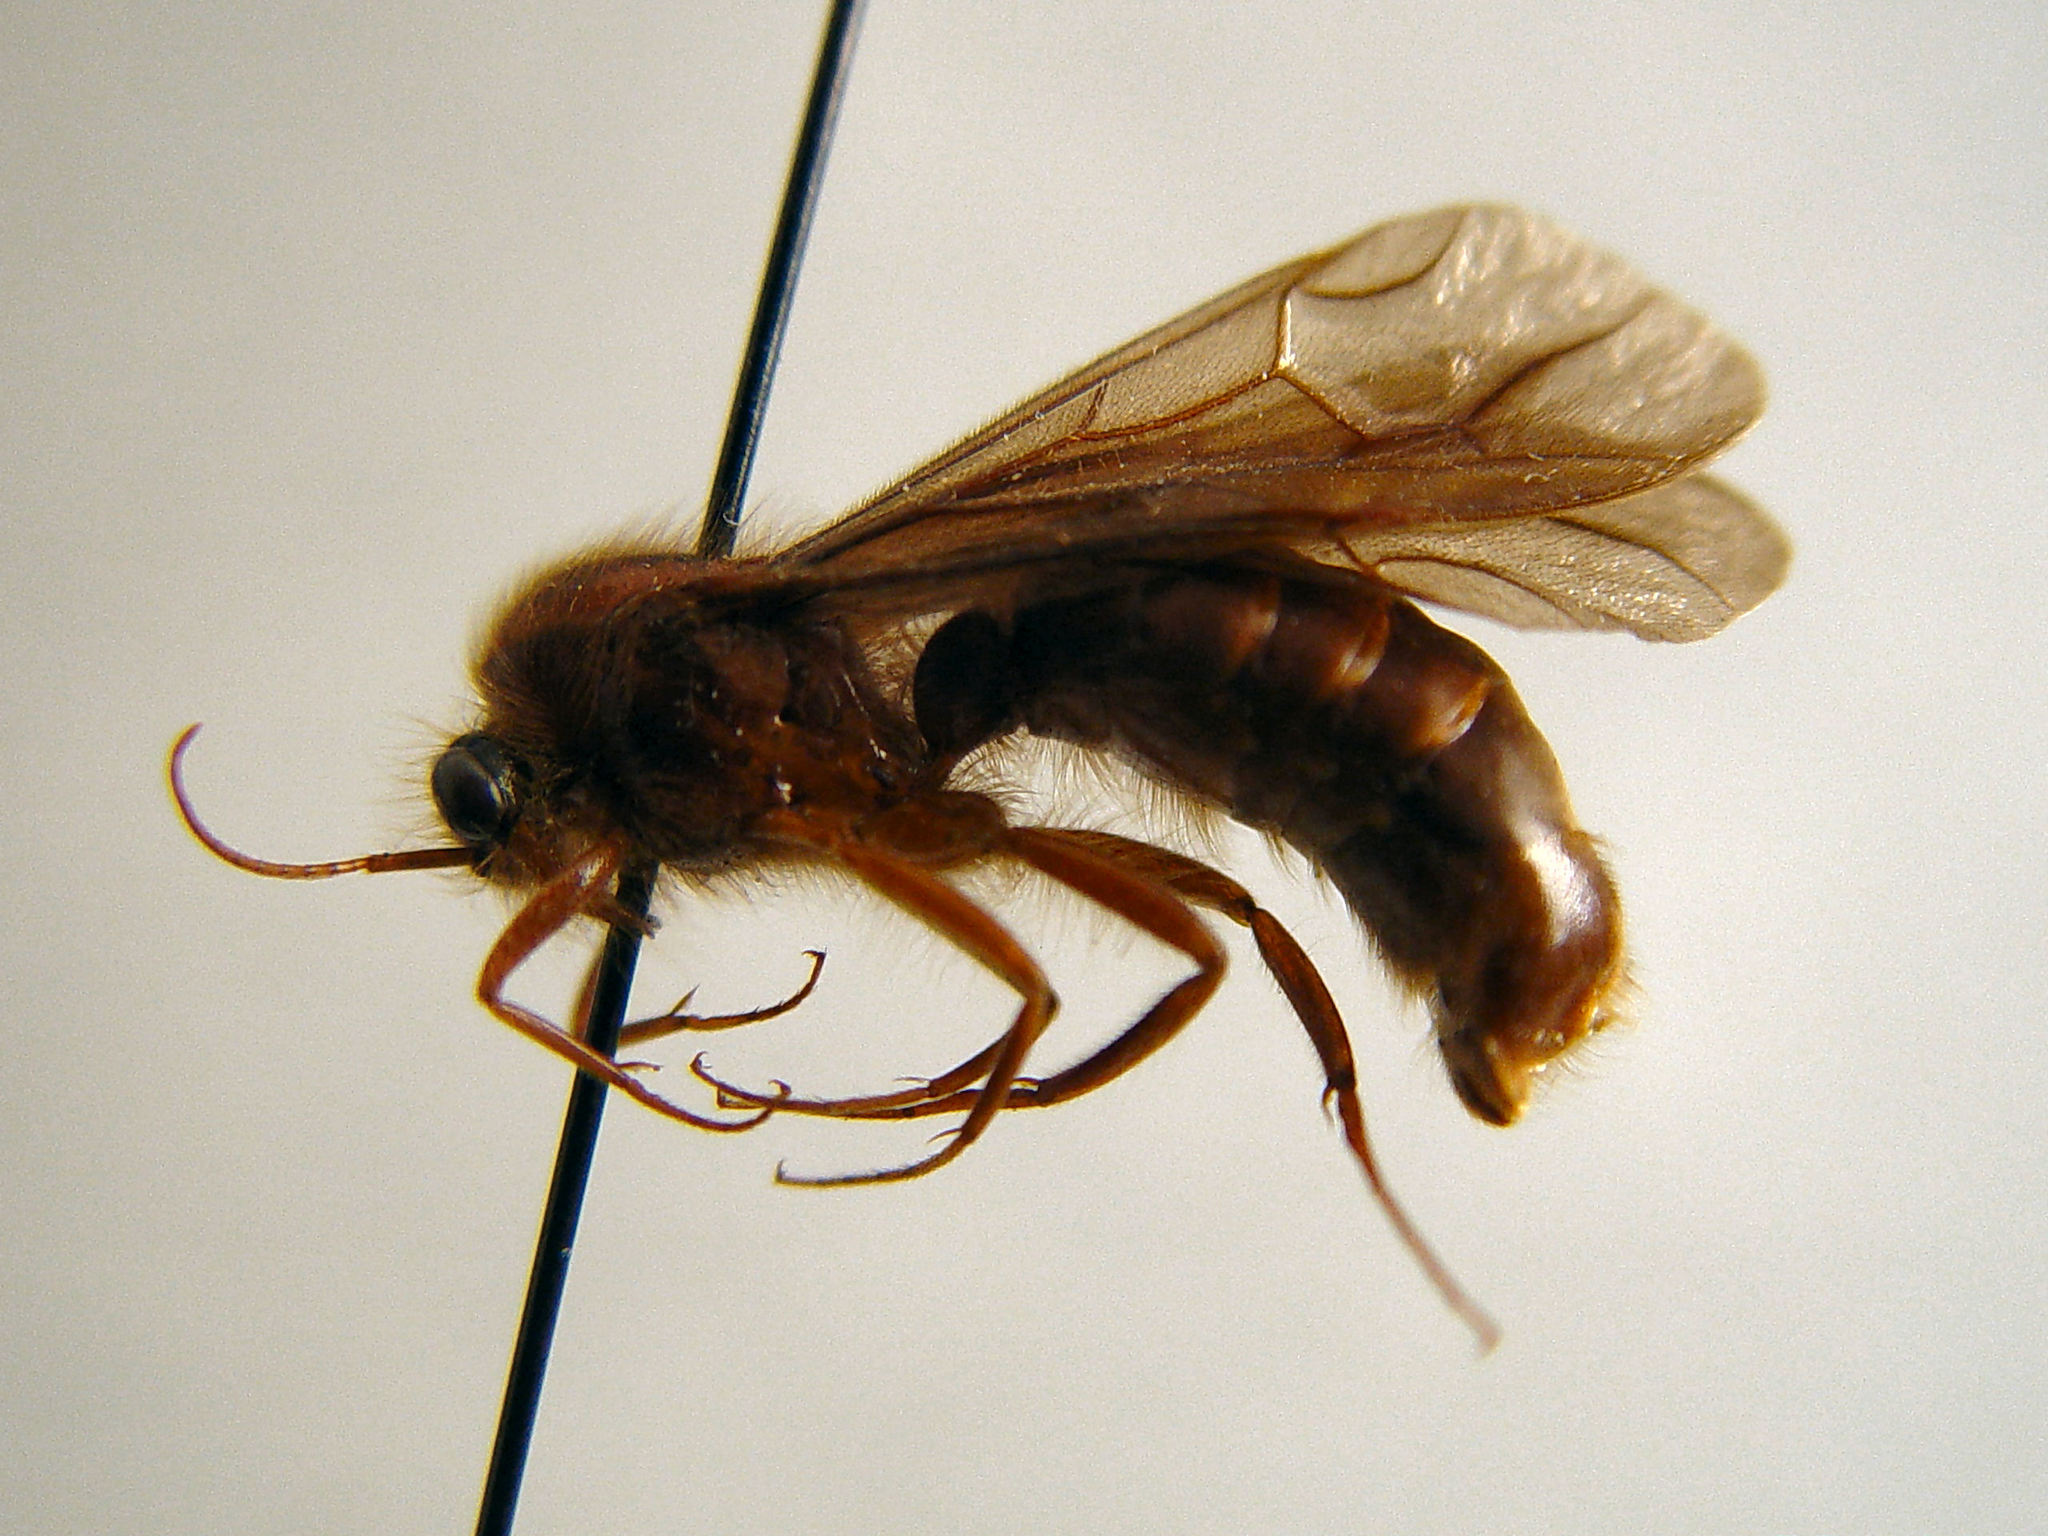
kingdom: Animalia
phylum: Arthropoda
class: Insecta
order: Hymenoptera
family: Formicidae
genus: Labidus
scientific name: Labidus auropubens
